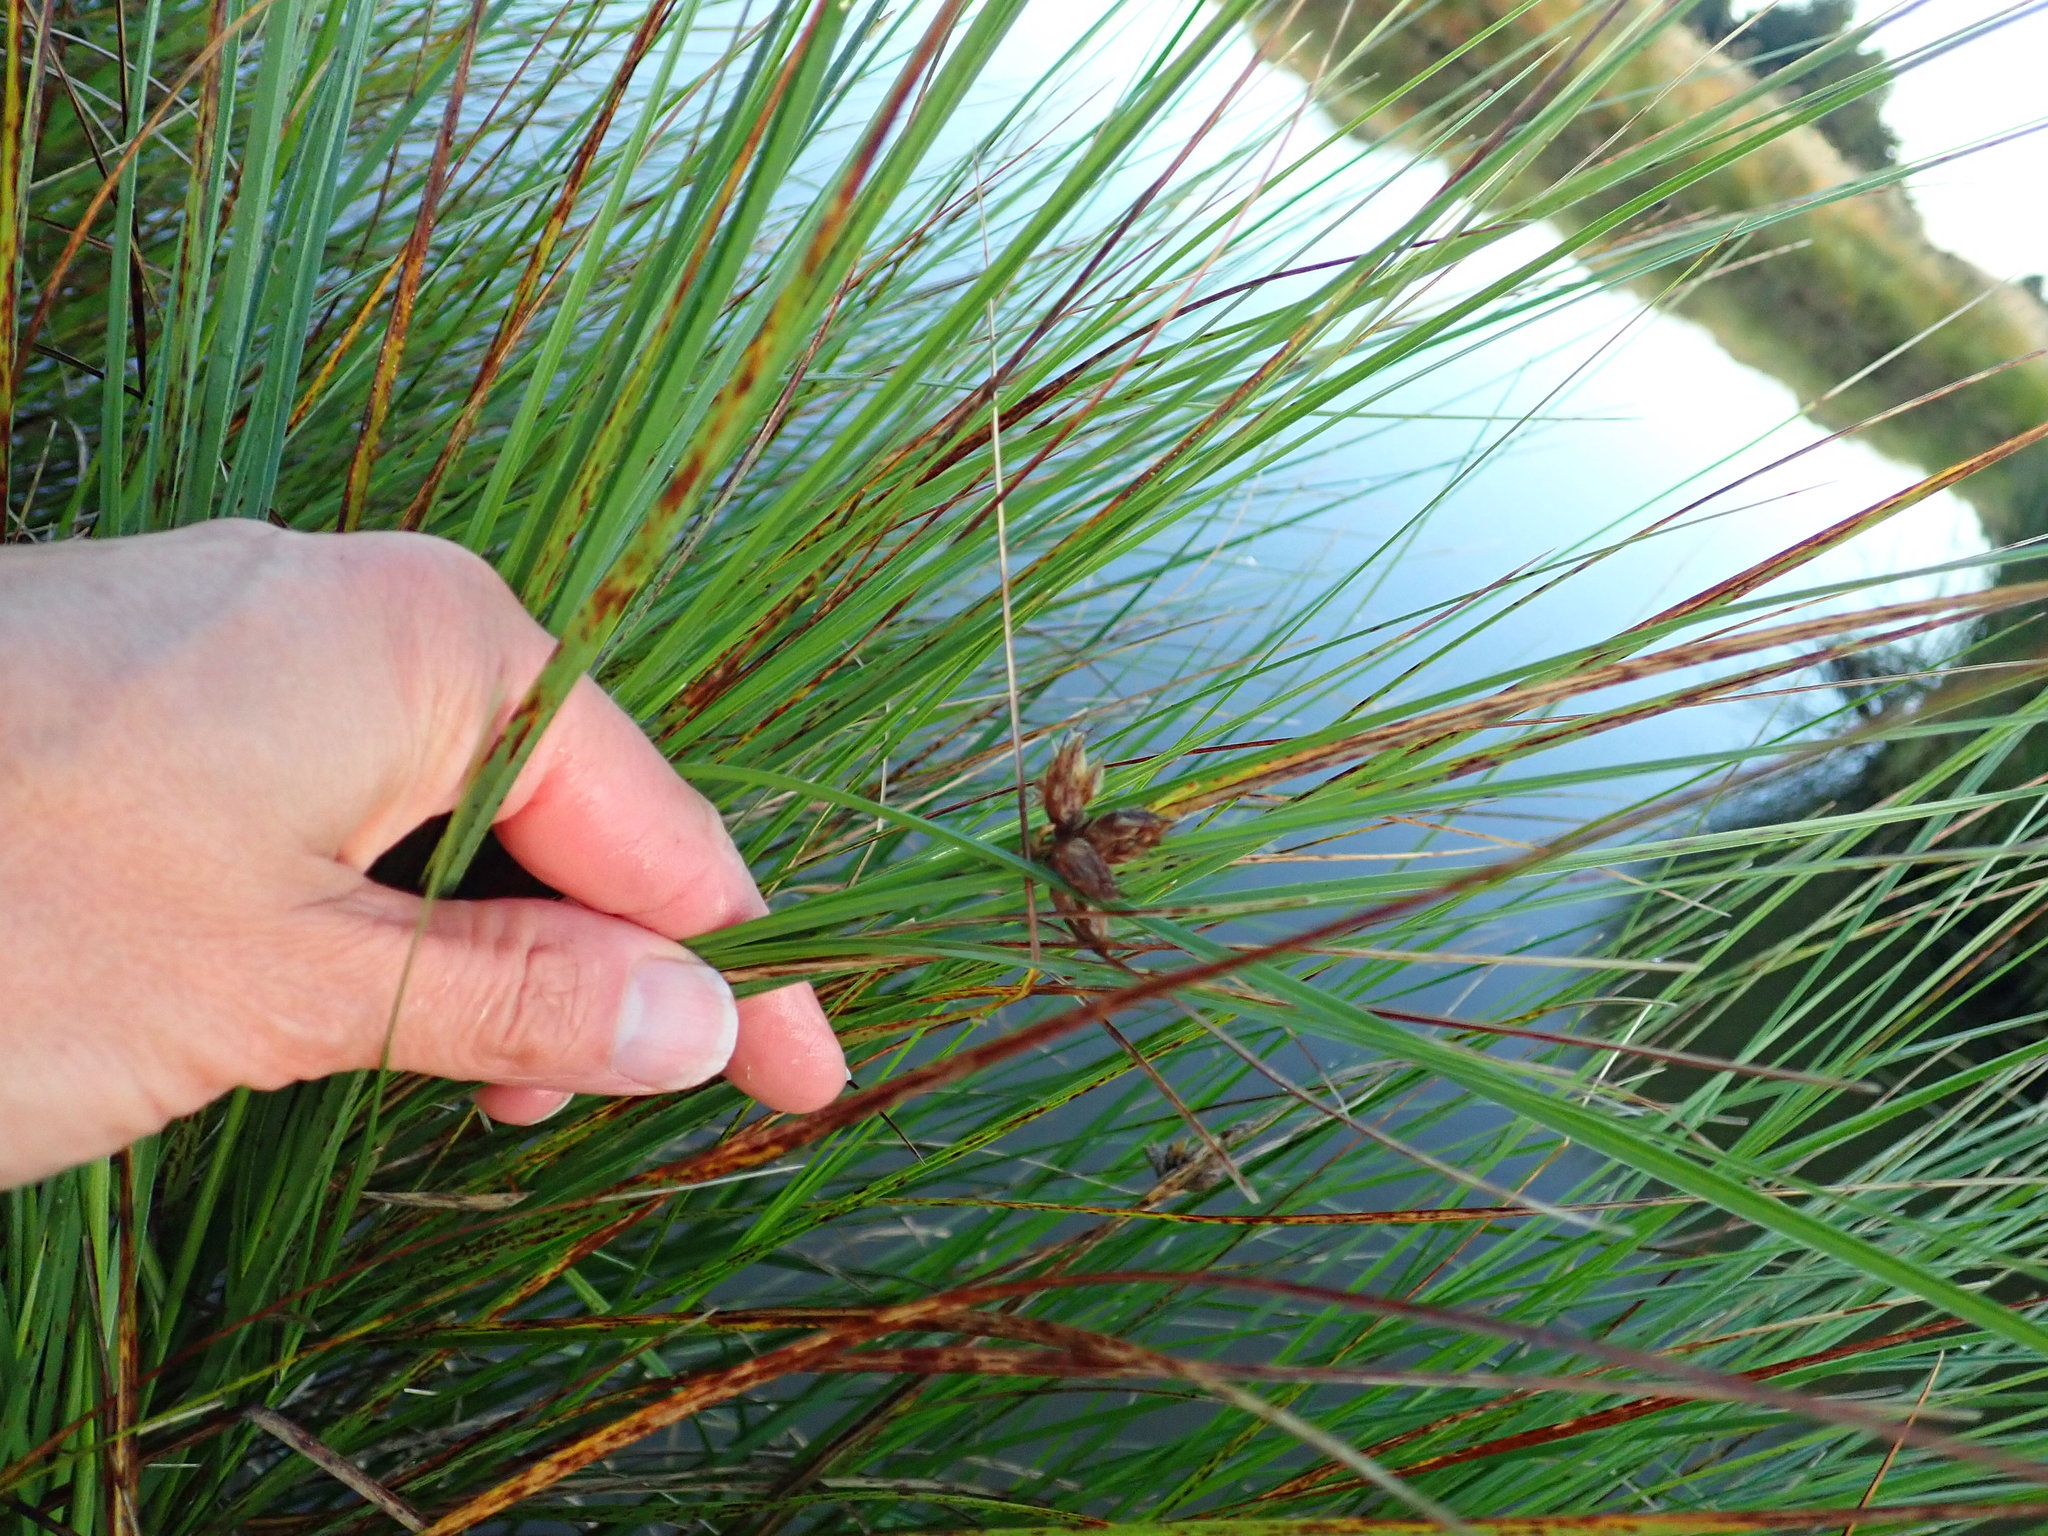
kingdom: Plantae
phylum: Tracheophyta
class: Liliopsida
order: Poales
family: Cyperaceae
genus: Bolboschoenus
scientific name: Bolboschoenus caldwellii
